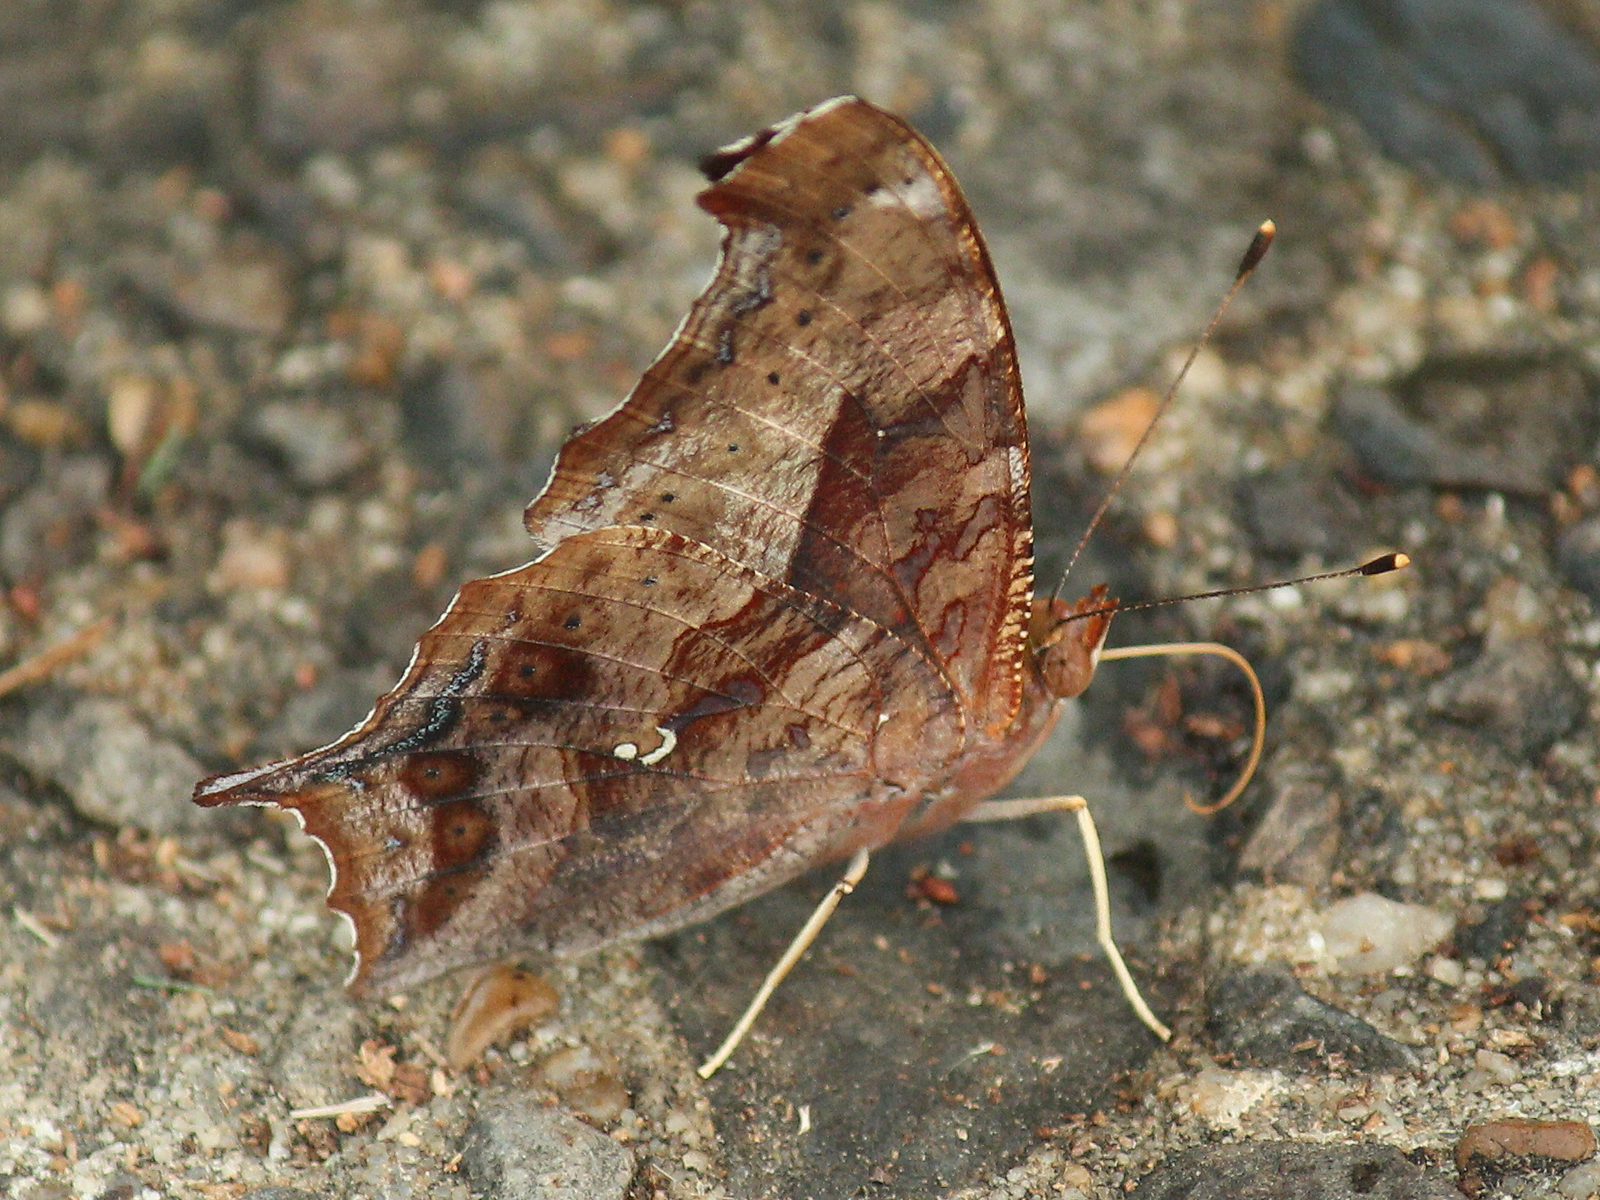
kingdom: Animalia
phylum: Arthropoda
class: Insecta
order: Lepidoptera
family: Nymphalidae
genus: Polygonia
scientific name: Polygonia interrogationis
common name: Question mark
